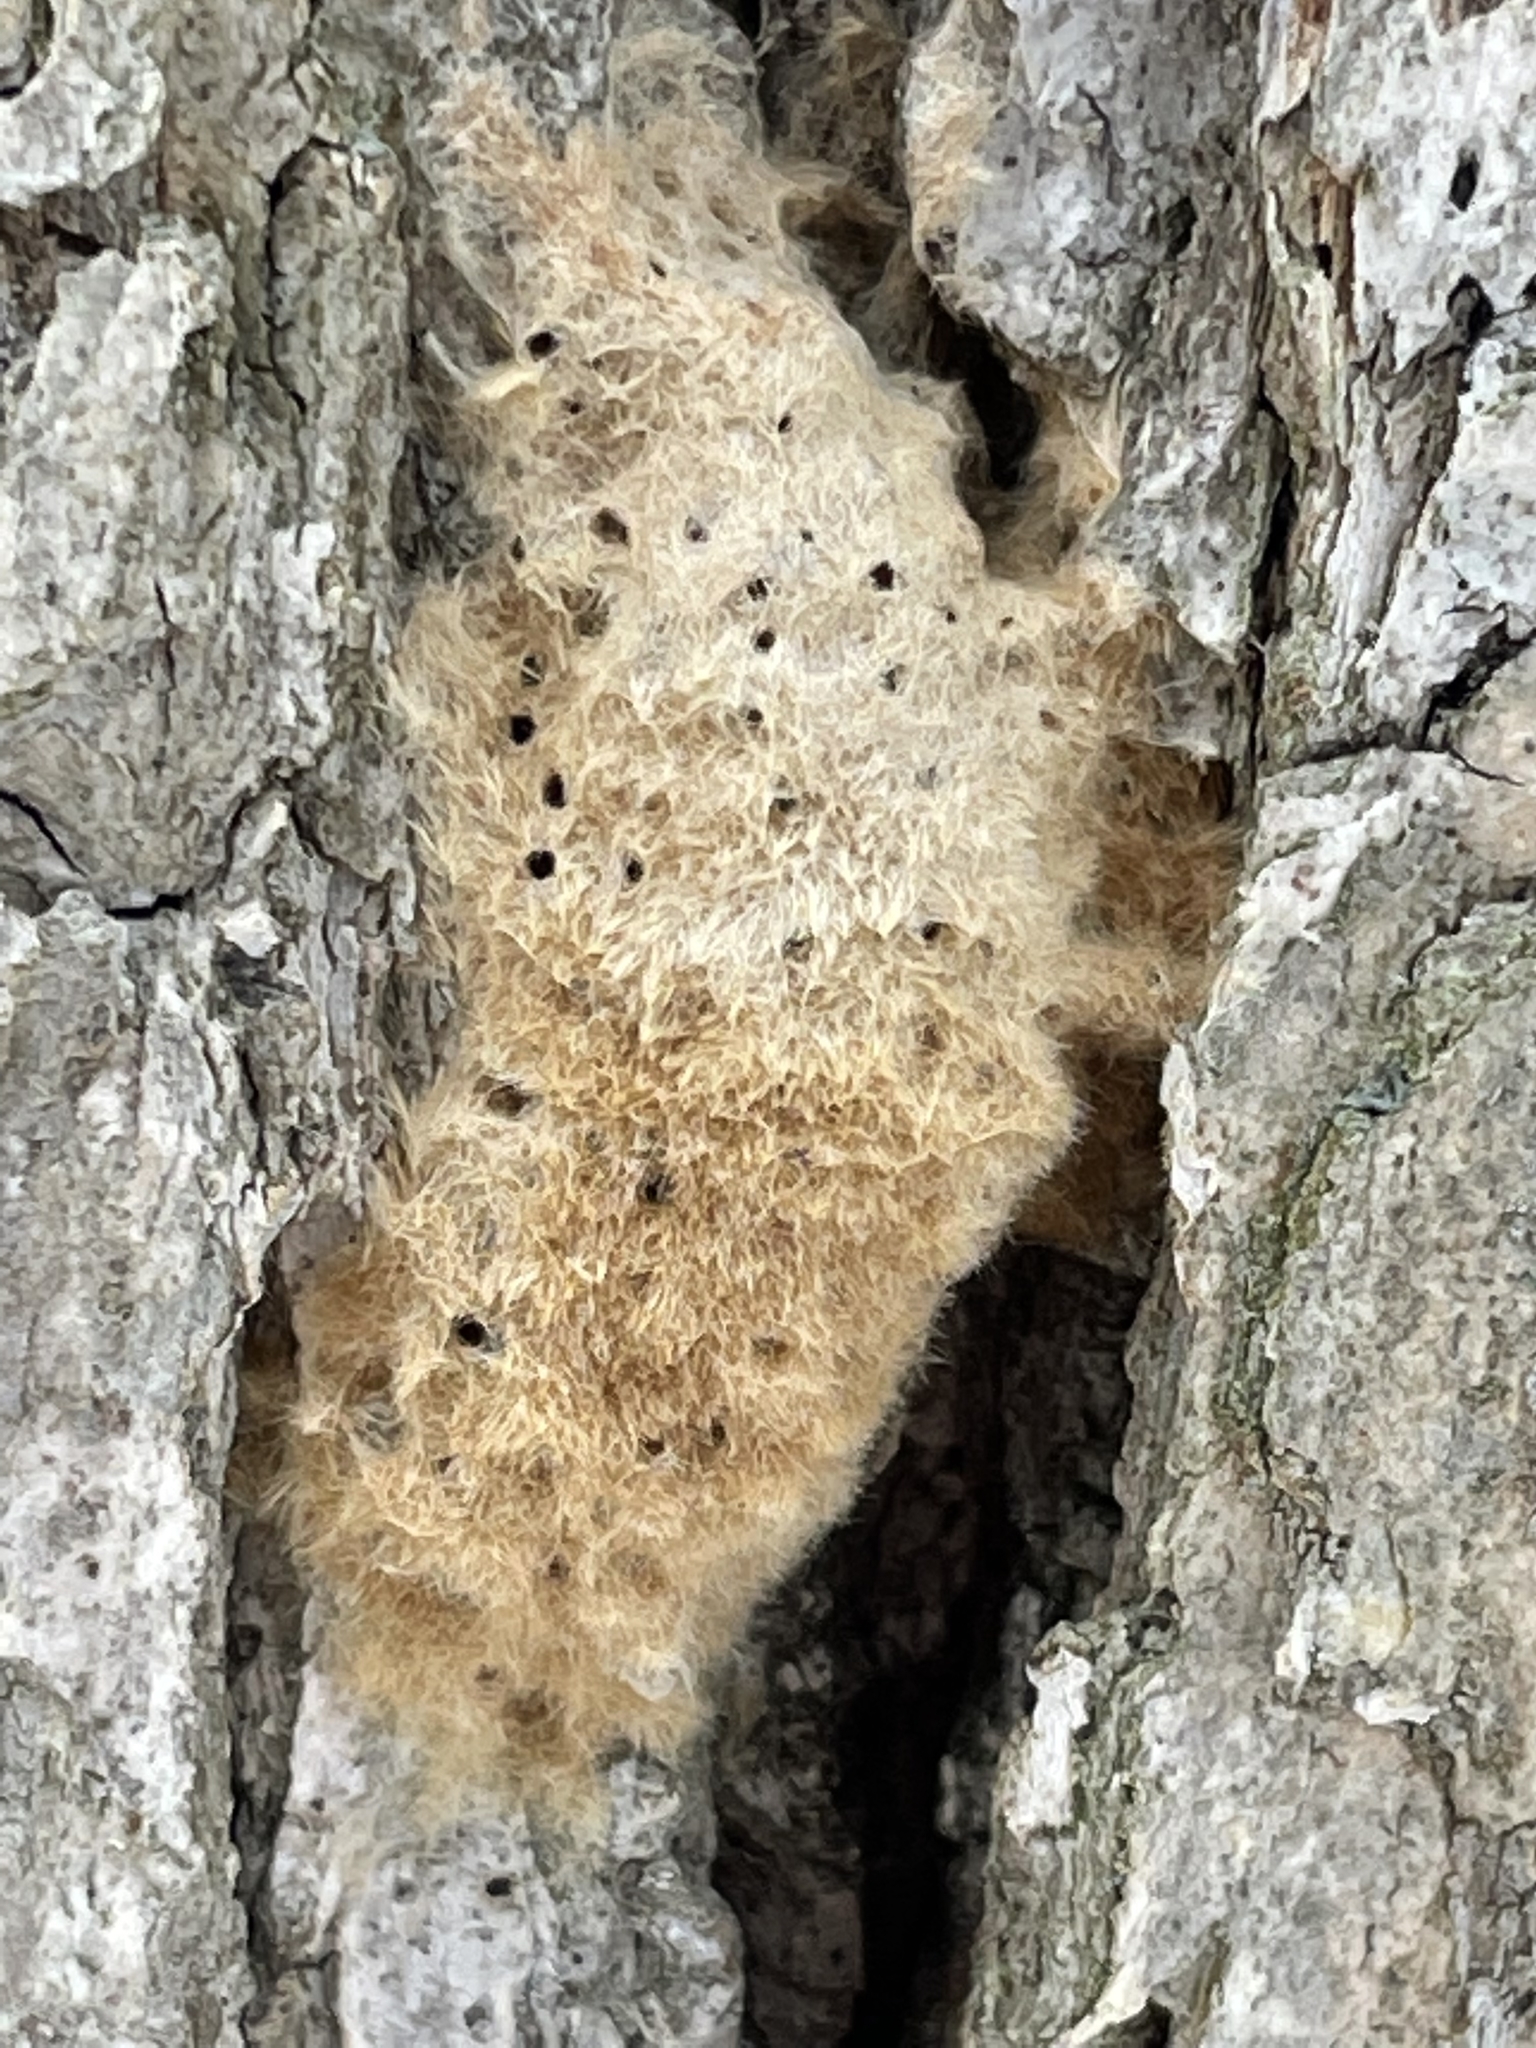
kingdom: Animalia
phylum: Arthropoda
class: Insecta
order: Lepidoptera
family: Erebidae
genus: Lymantria
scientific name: Lymantria dispar
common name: Gypsy moth
